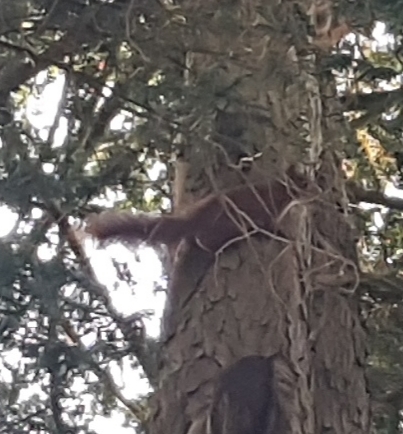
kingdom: Animalia
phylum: Chordata
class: Mammalia
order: Rodentia
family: Sciuridae
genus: Sciurus
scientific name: Sciurus vulgaris
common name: Eurasian red squirrel
